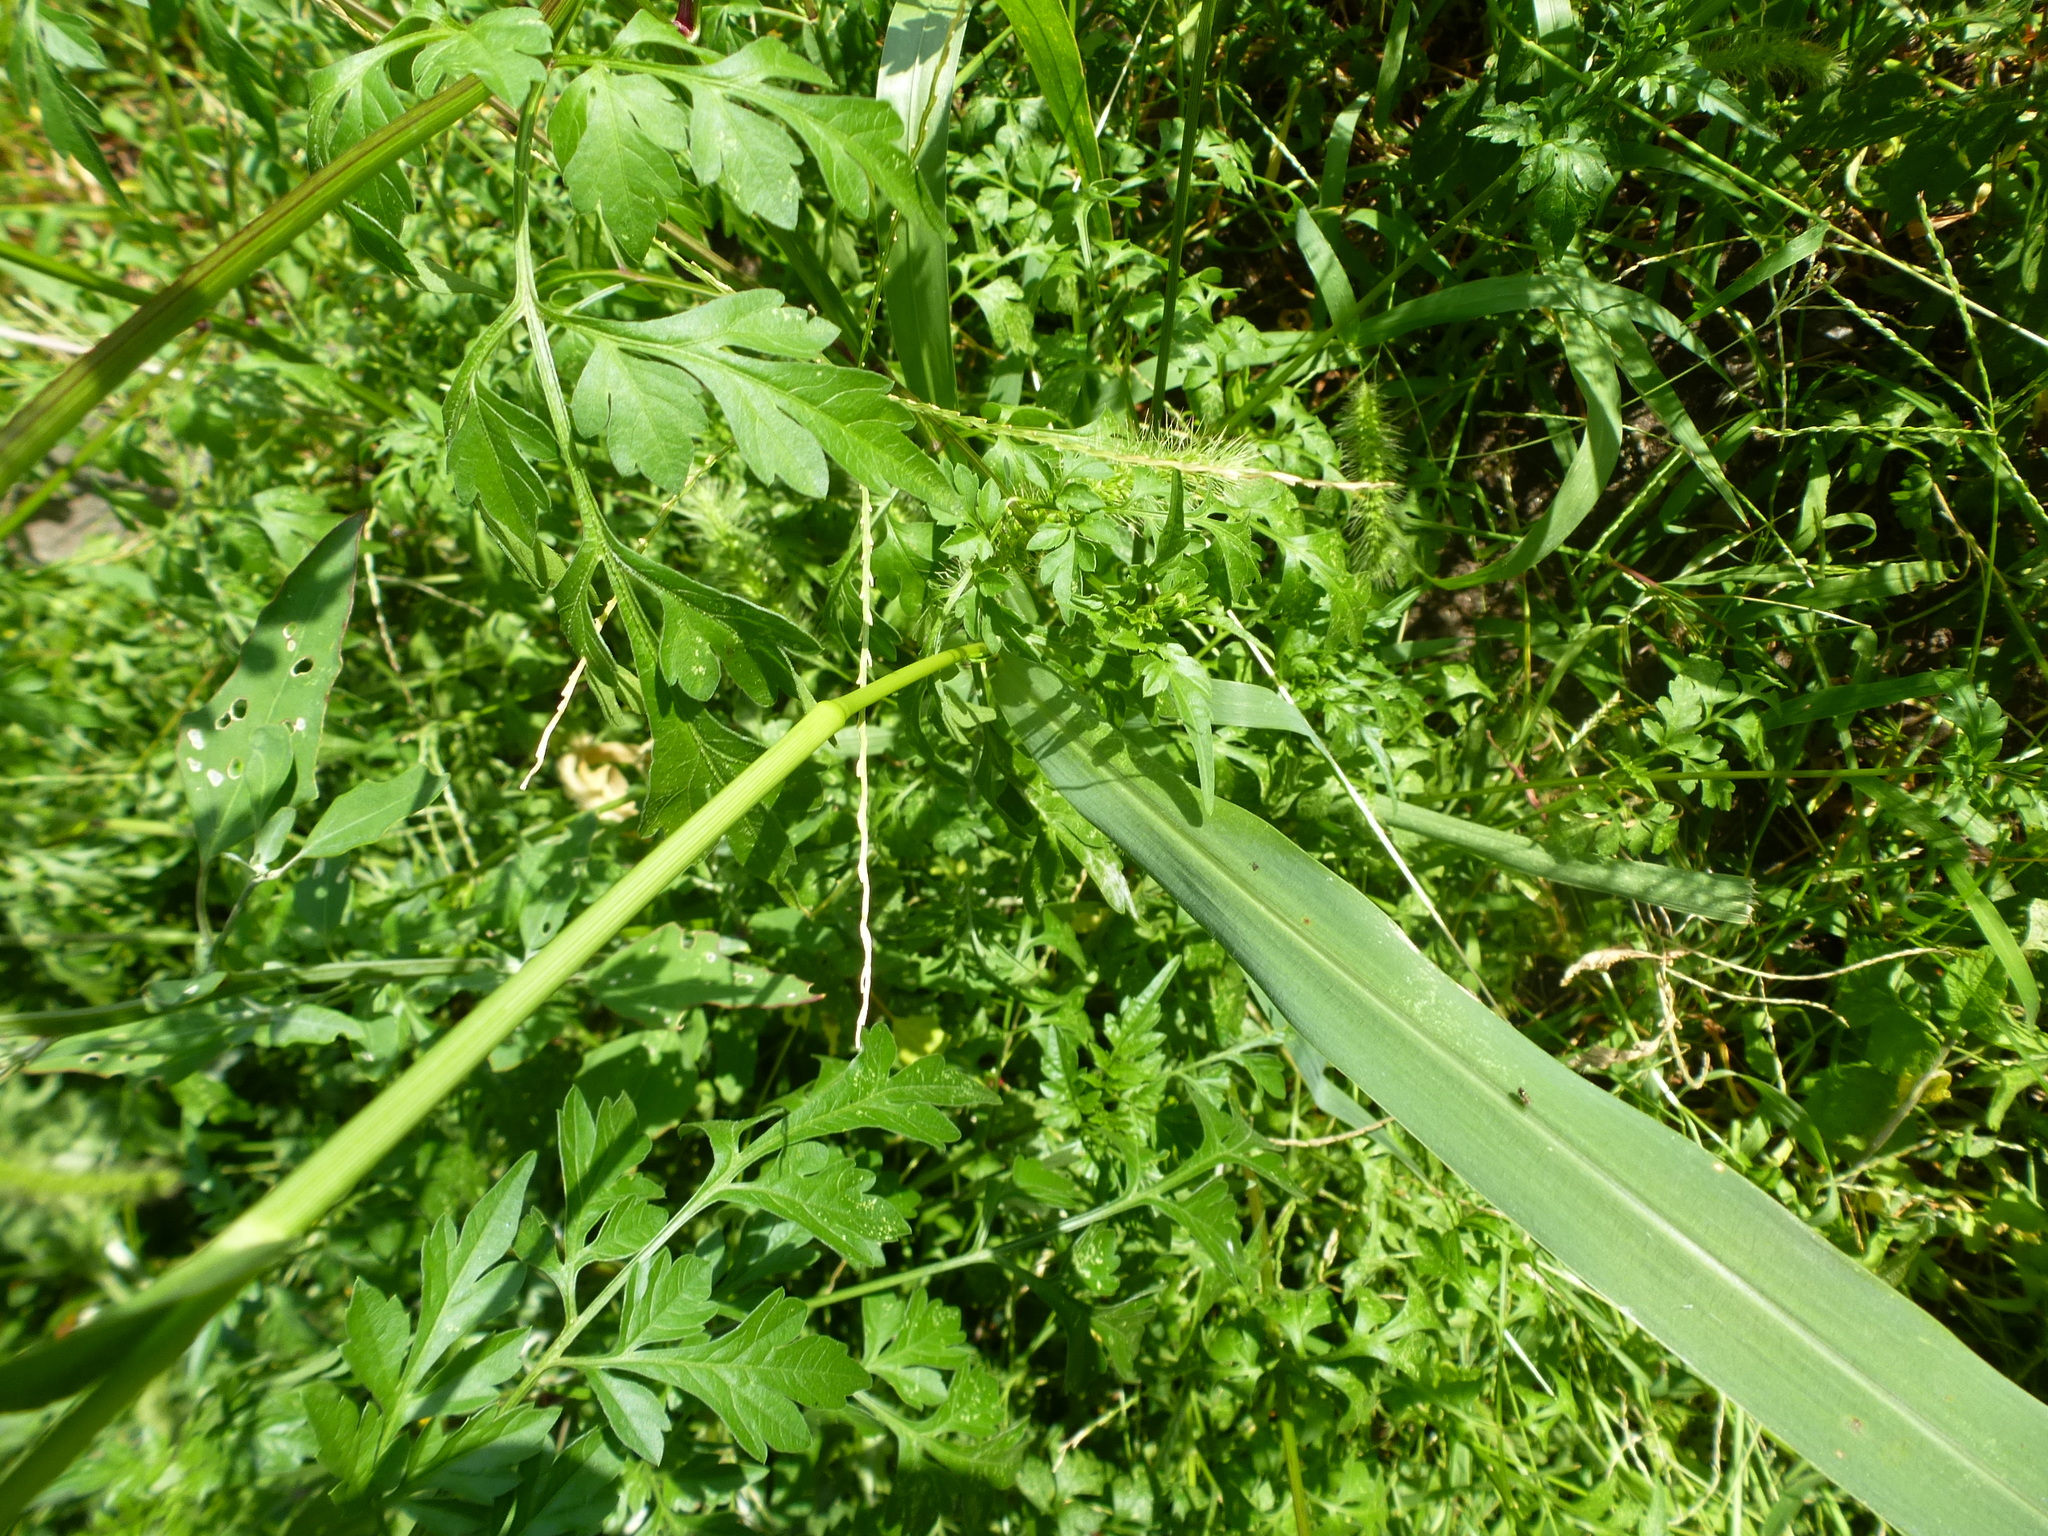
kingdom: Plantae
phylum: Tracheophyta
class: Liliopsida
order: Poales
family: Poaceae
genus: Setaria
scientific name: Setaria faberi
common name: Nodding bristle-grass
